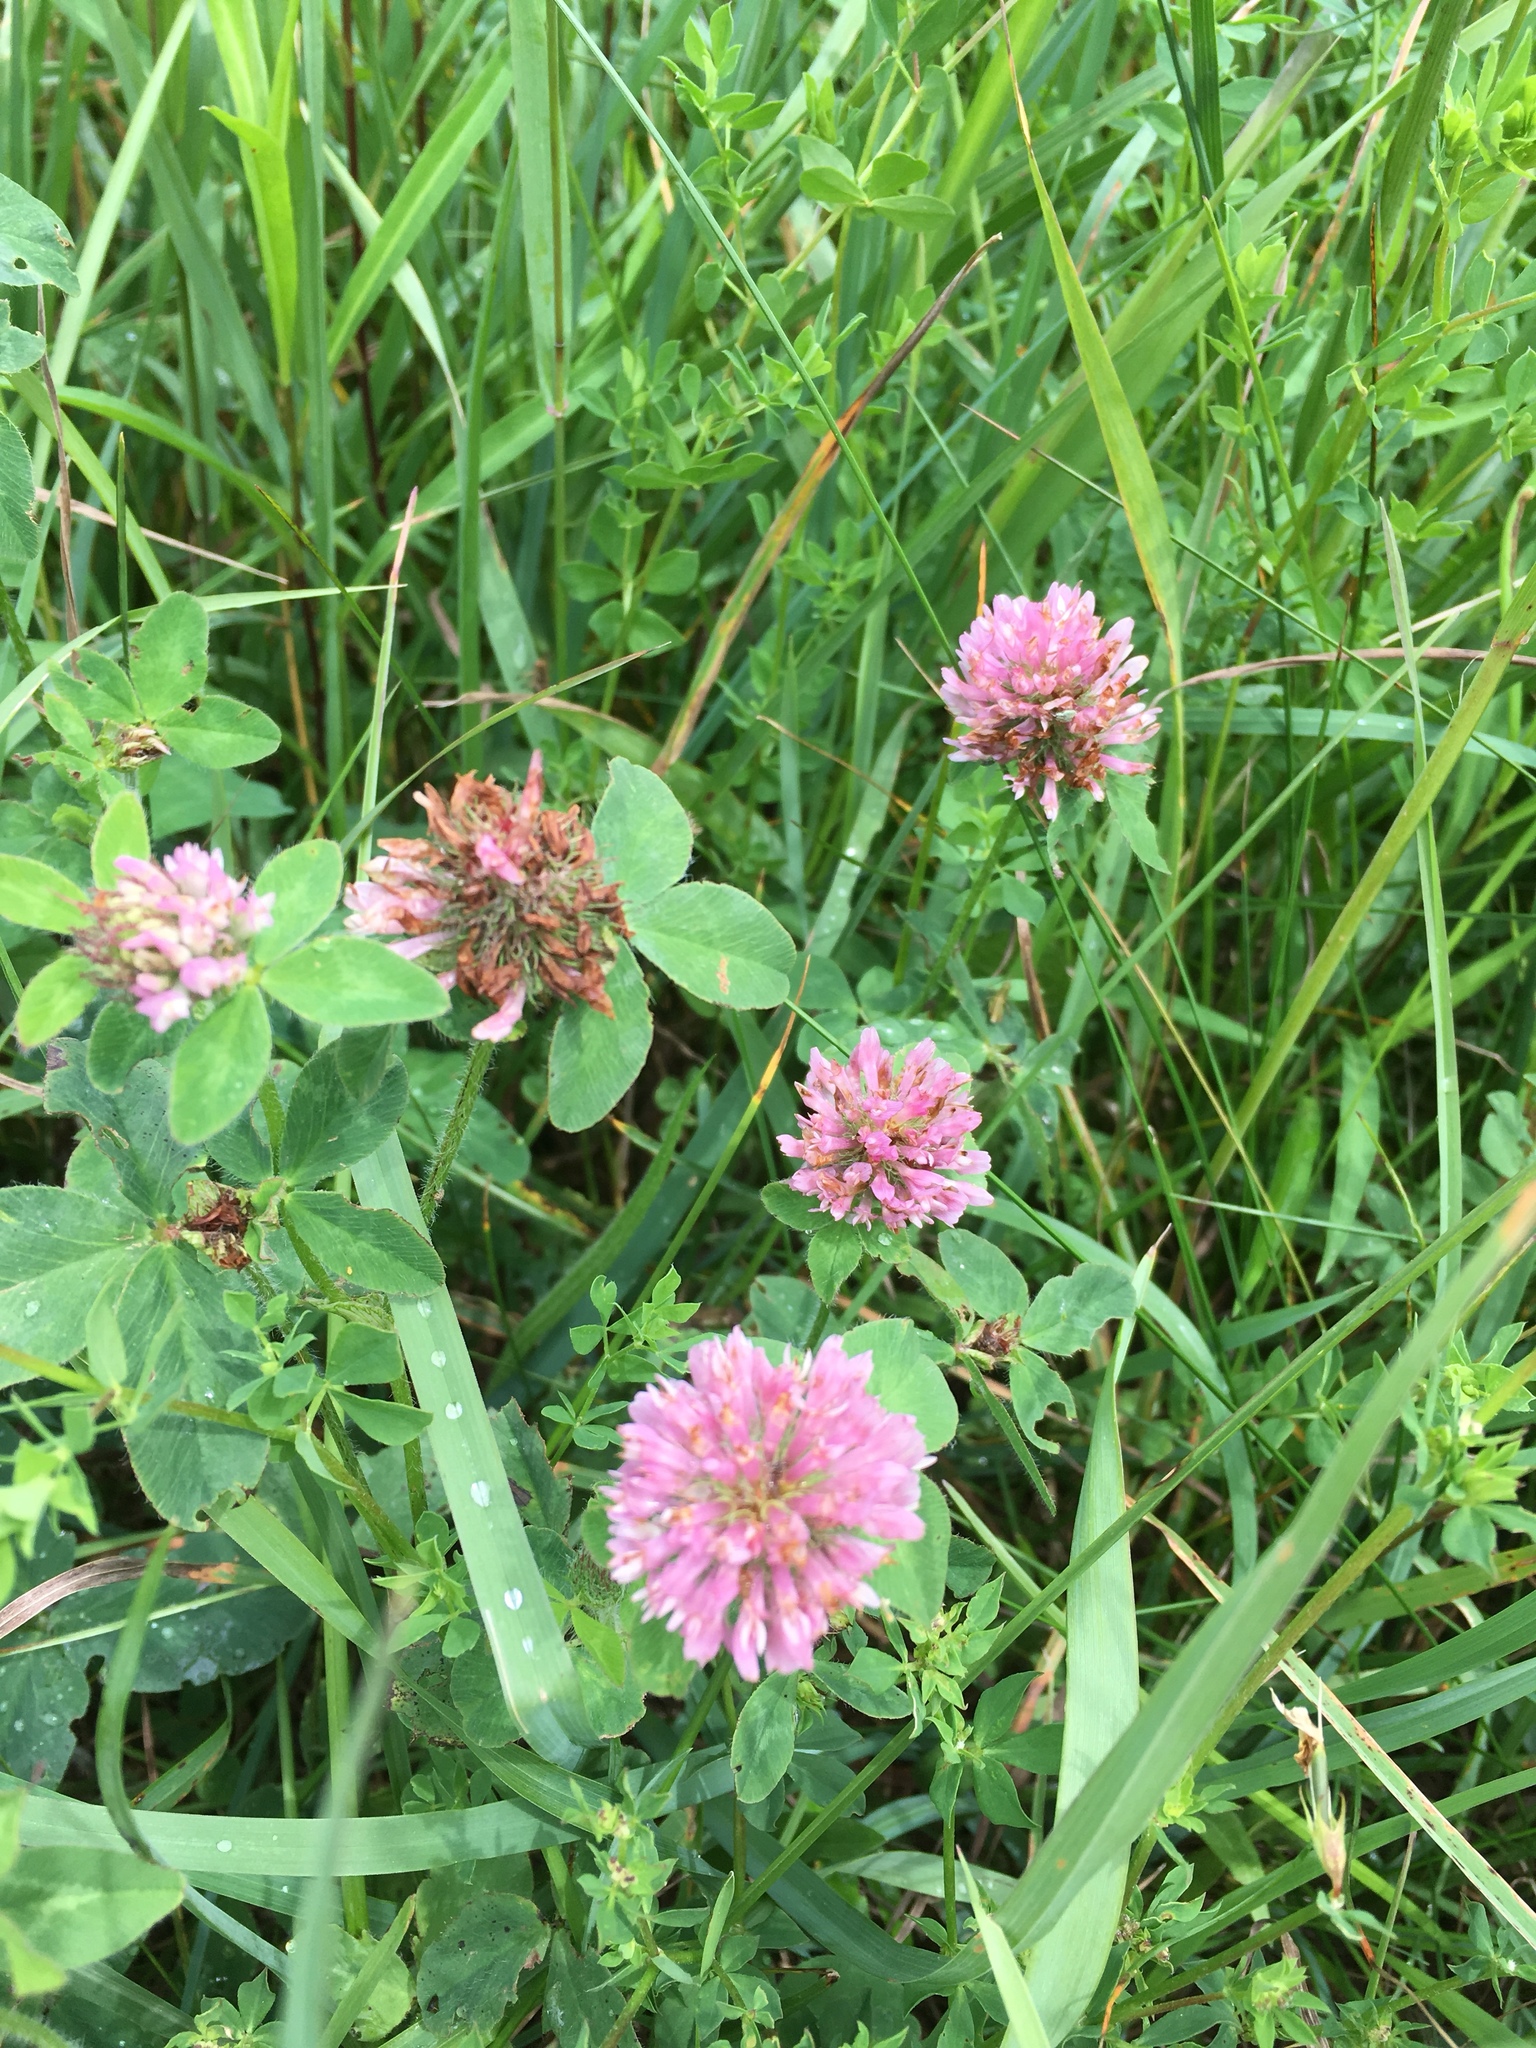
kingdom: Plantae
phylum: Tracheophyta
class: Magnoliopsida
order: Fabales
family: Fabaceae
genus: Trifolium
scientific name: Trifolium pratense
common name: Red clover
